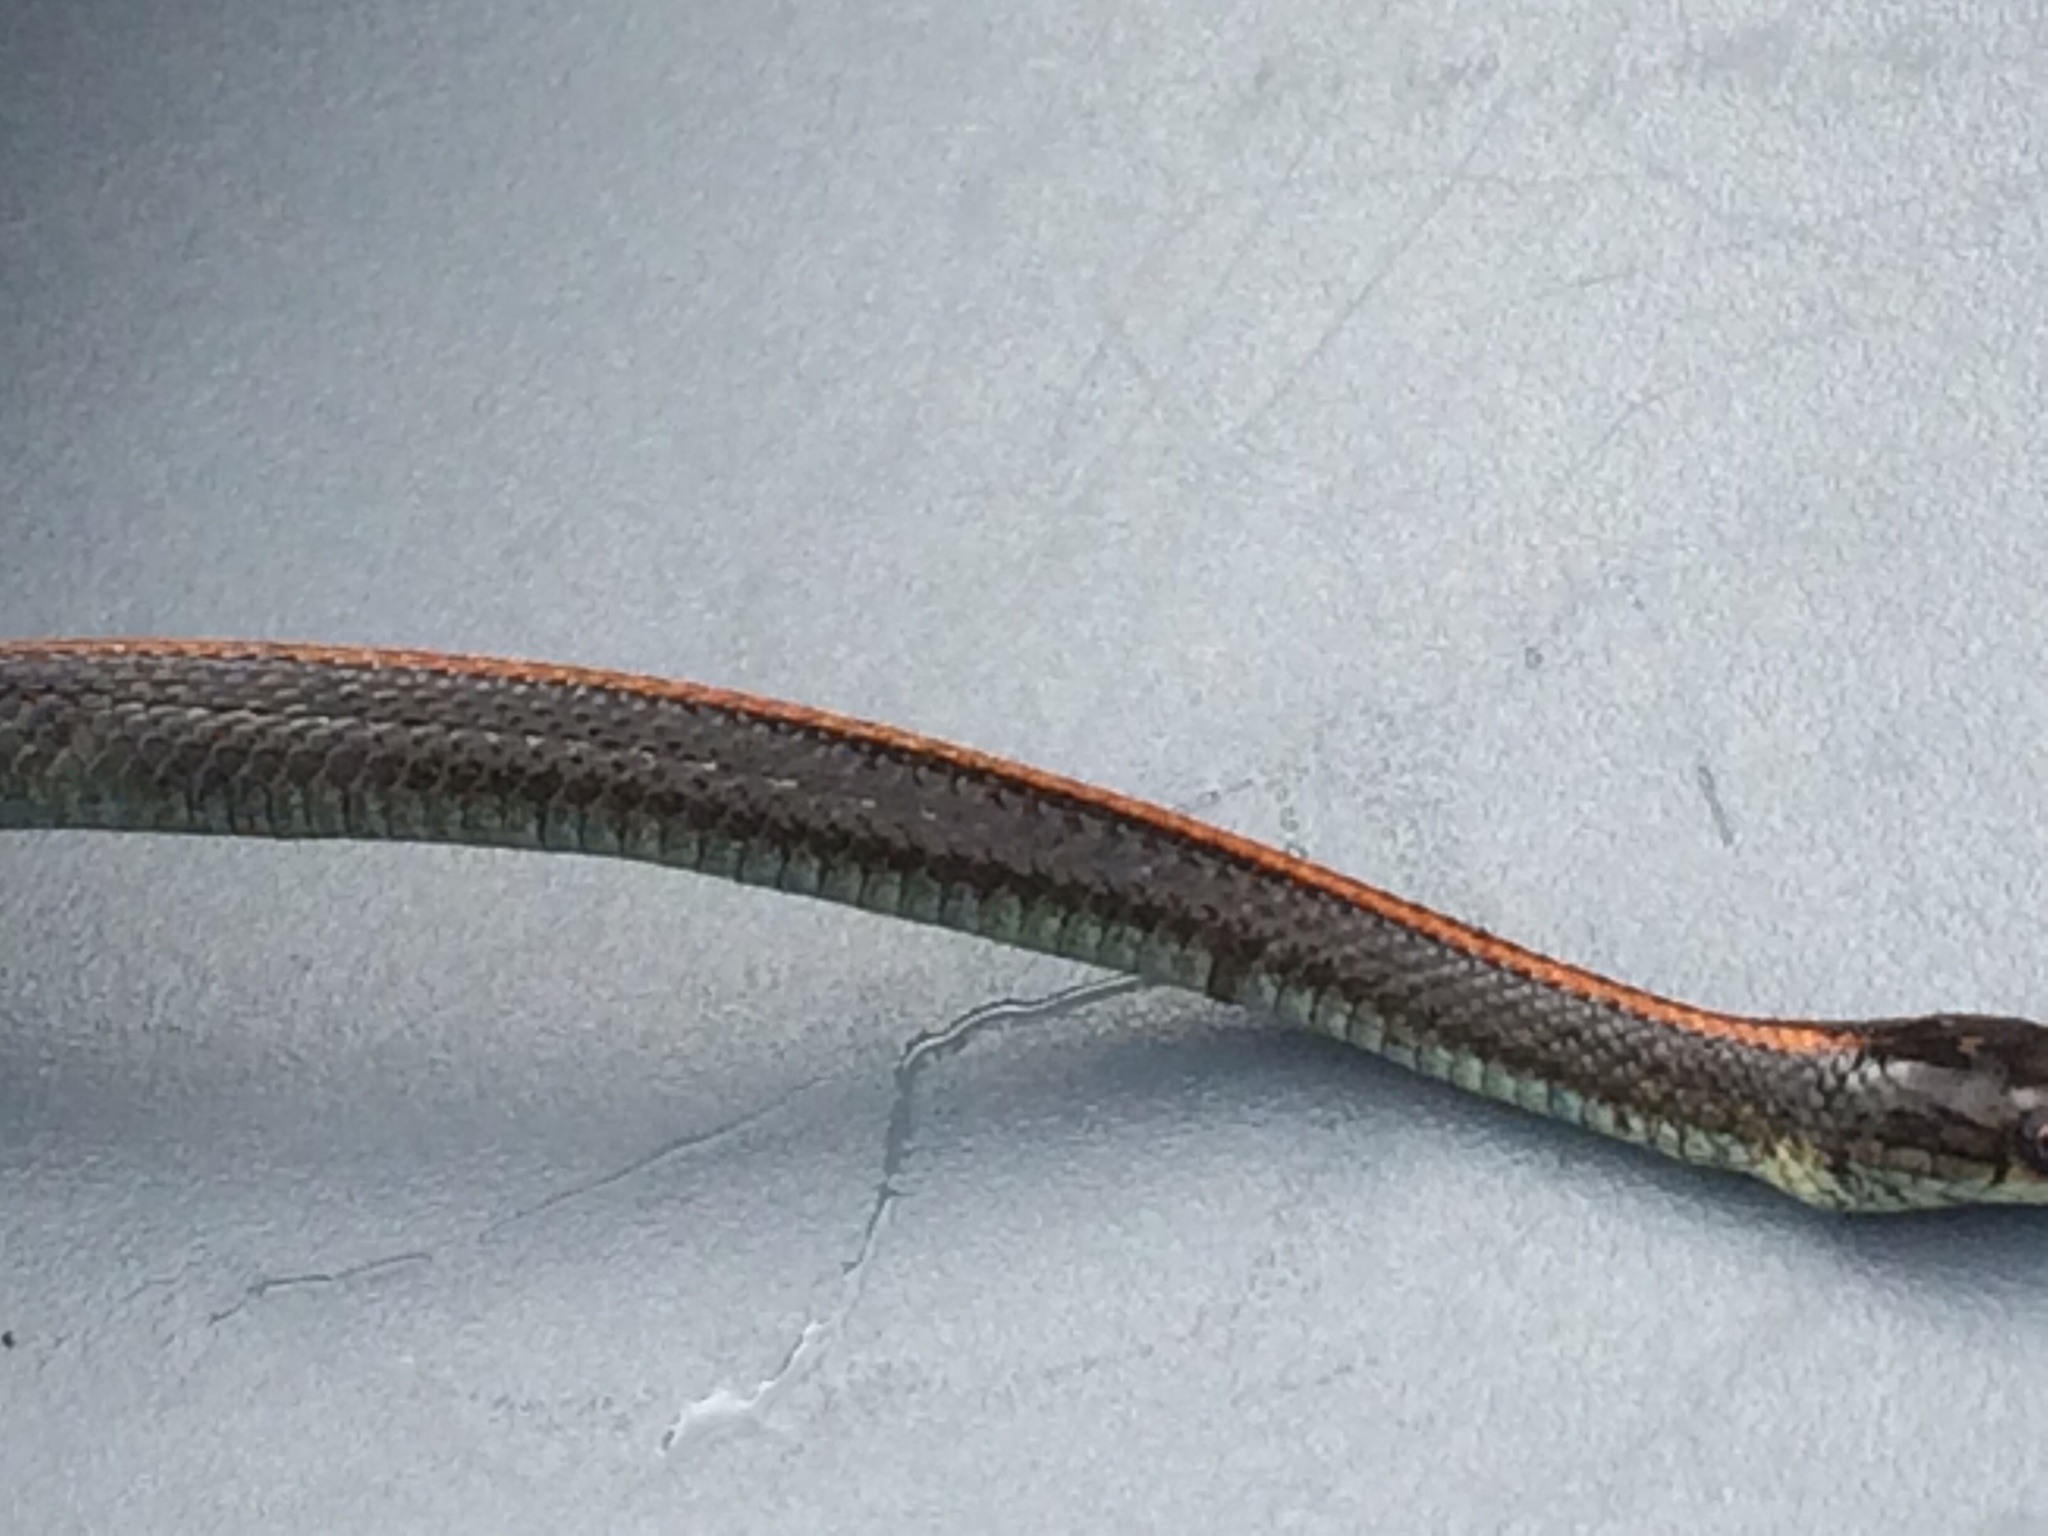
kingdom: Animalia
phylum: Chordata
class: Squamata
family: Colubridae
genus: Thamnophis
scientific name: Thamnophis ordinoides
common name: Northwestern garter snake
